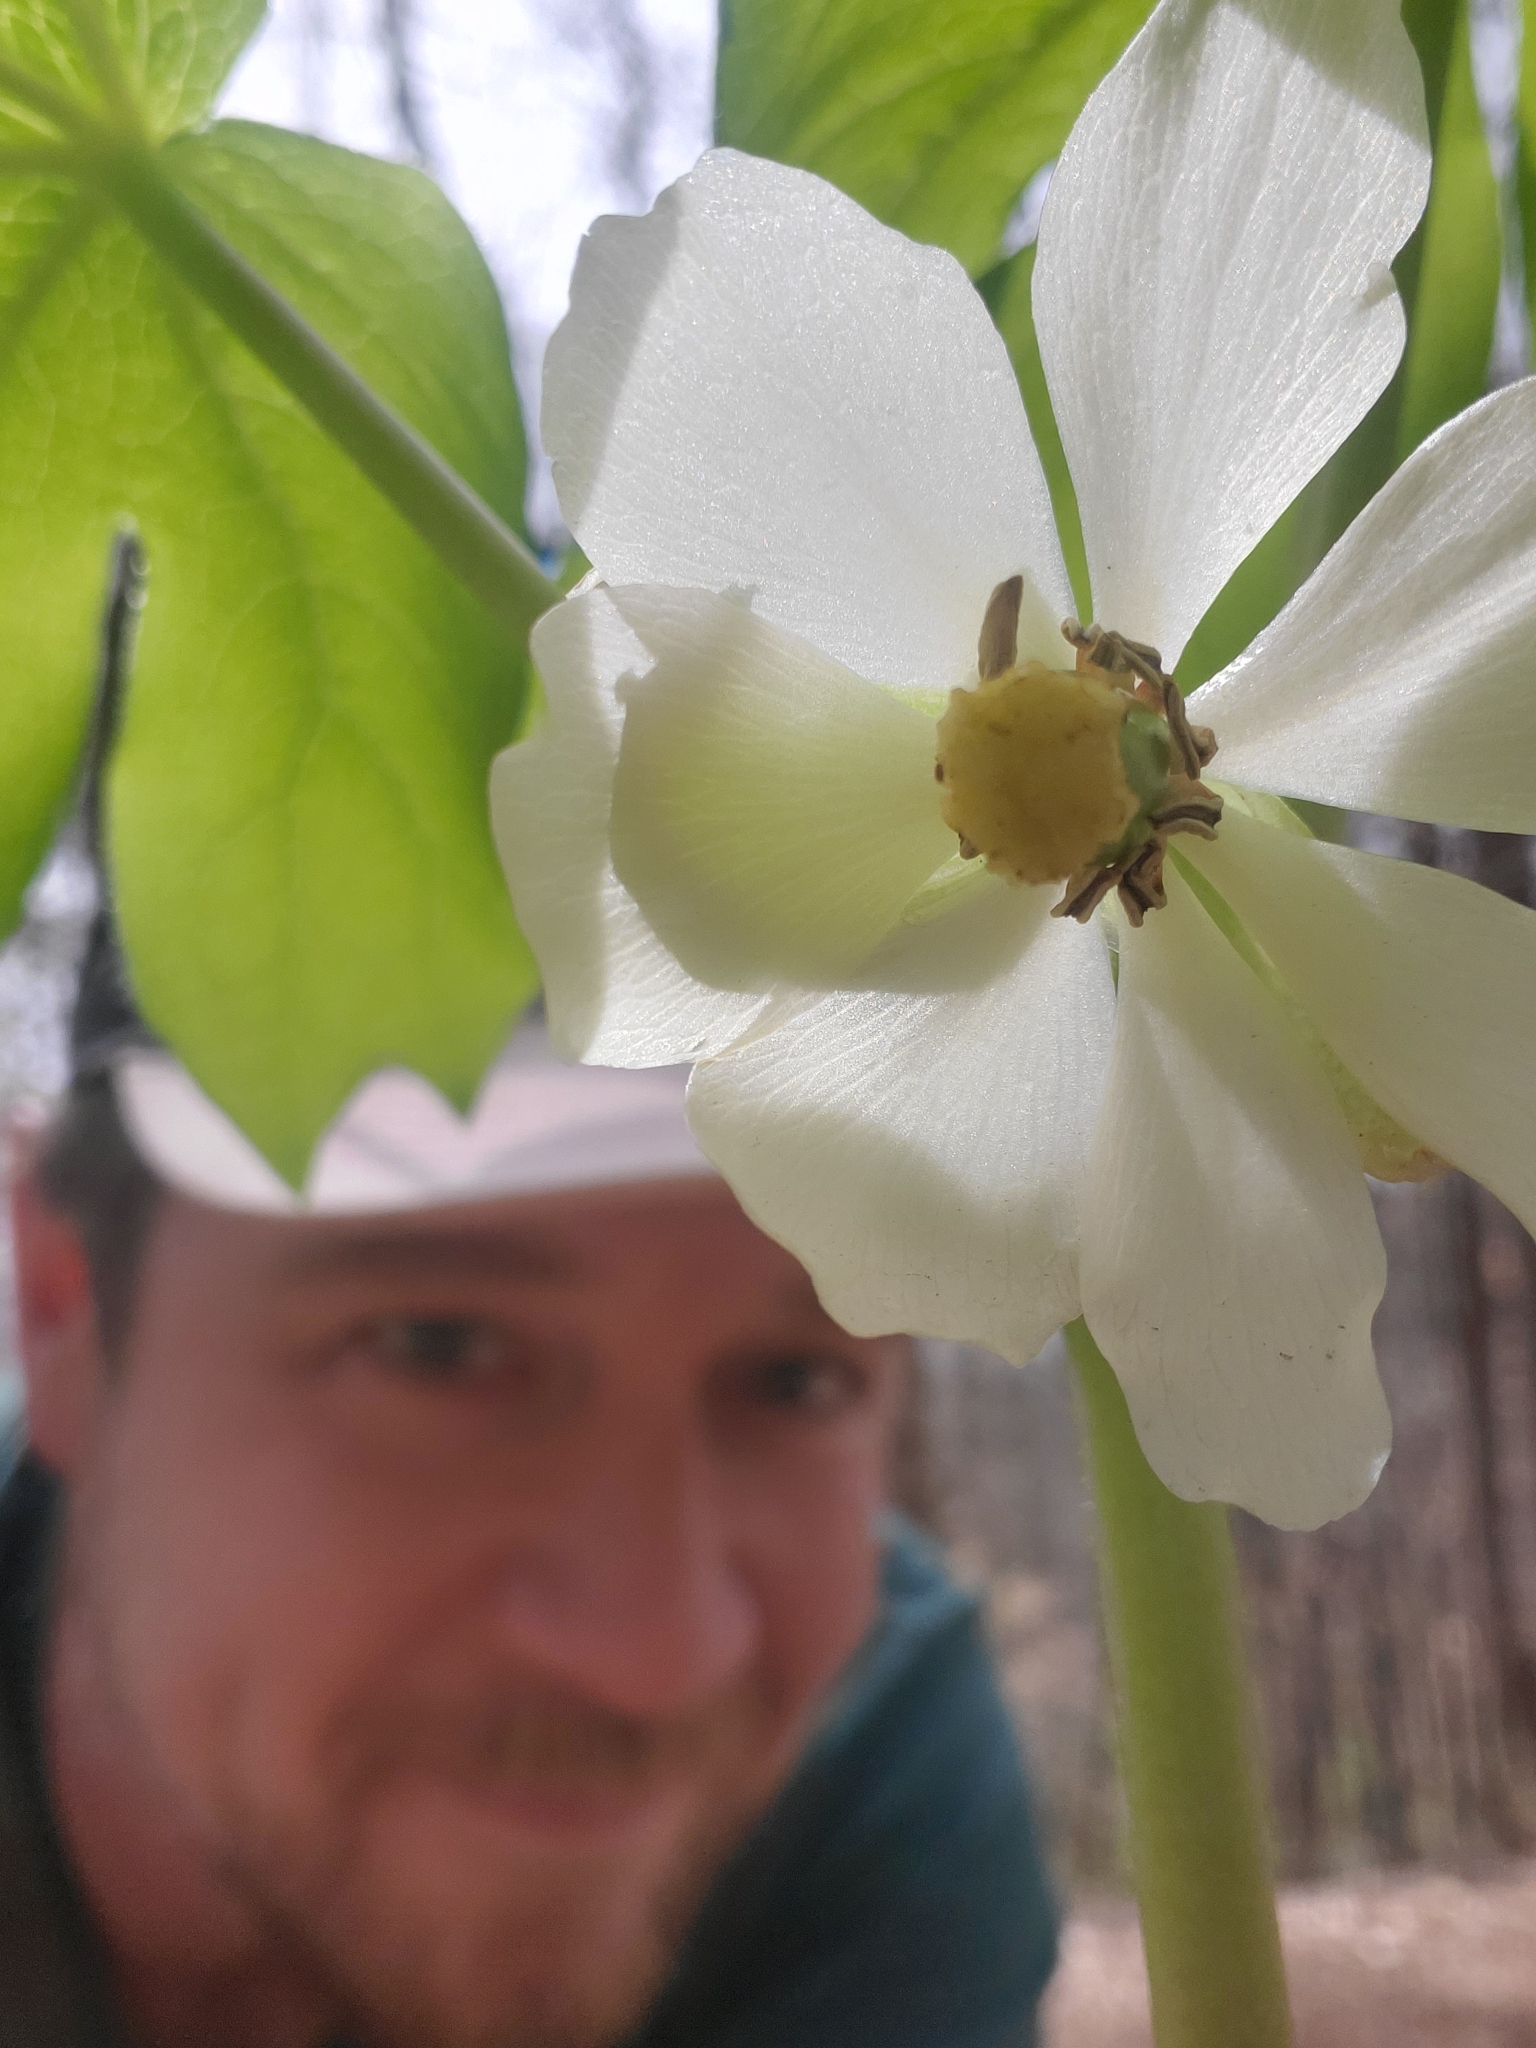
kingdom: Plantae
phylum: Tracheophyta
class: Magnoliopsida
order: Ranunculales
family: Berberidaceae
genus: Podophyllum
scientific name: Podophyllum peltatum
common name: Wild mandrake
